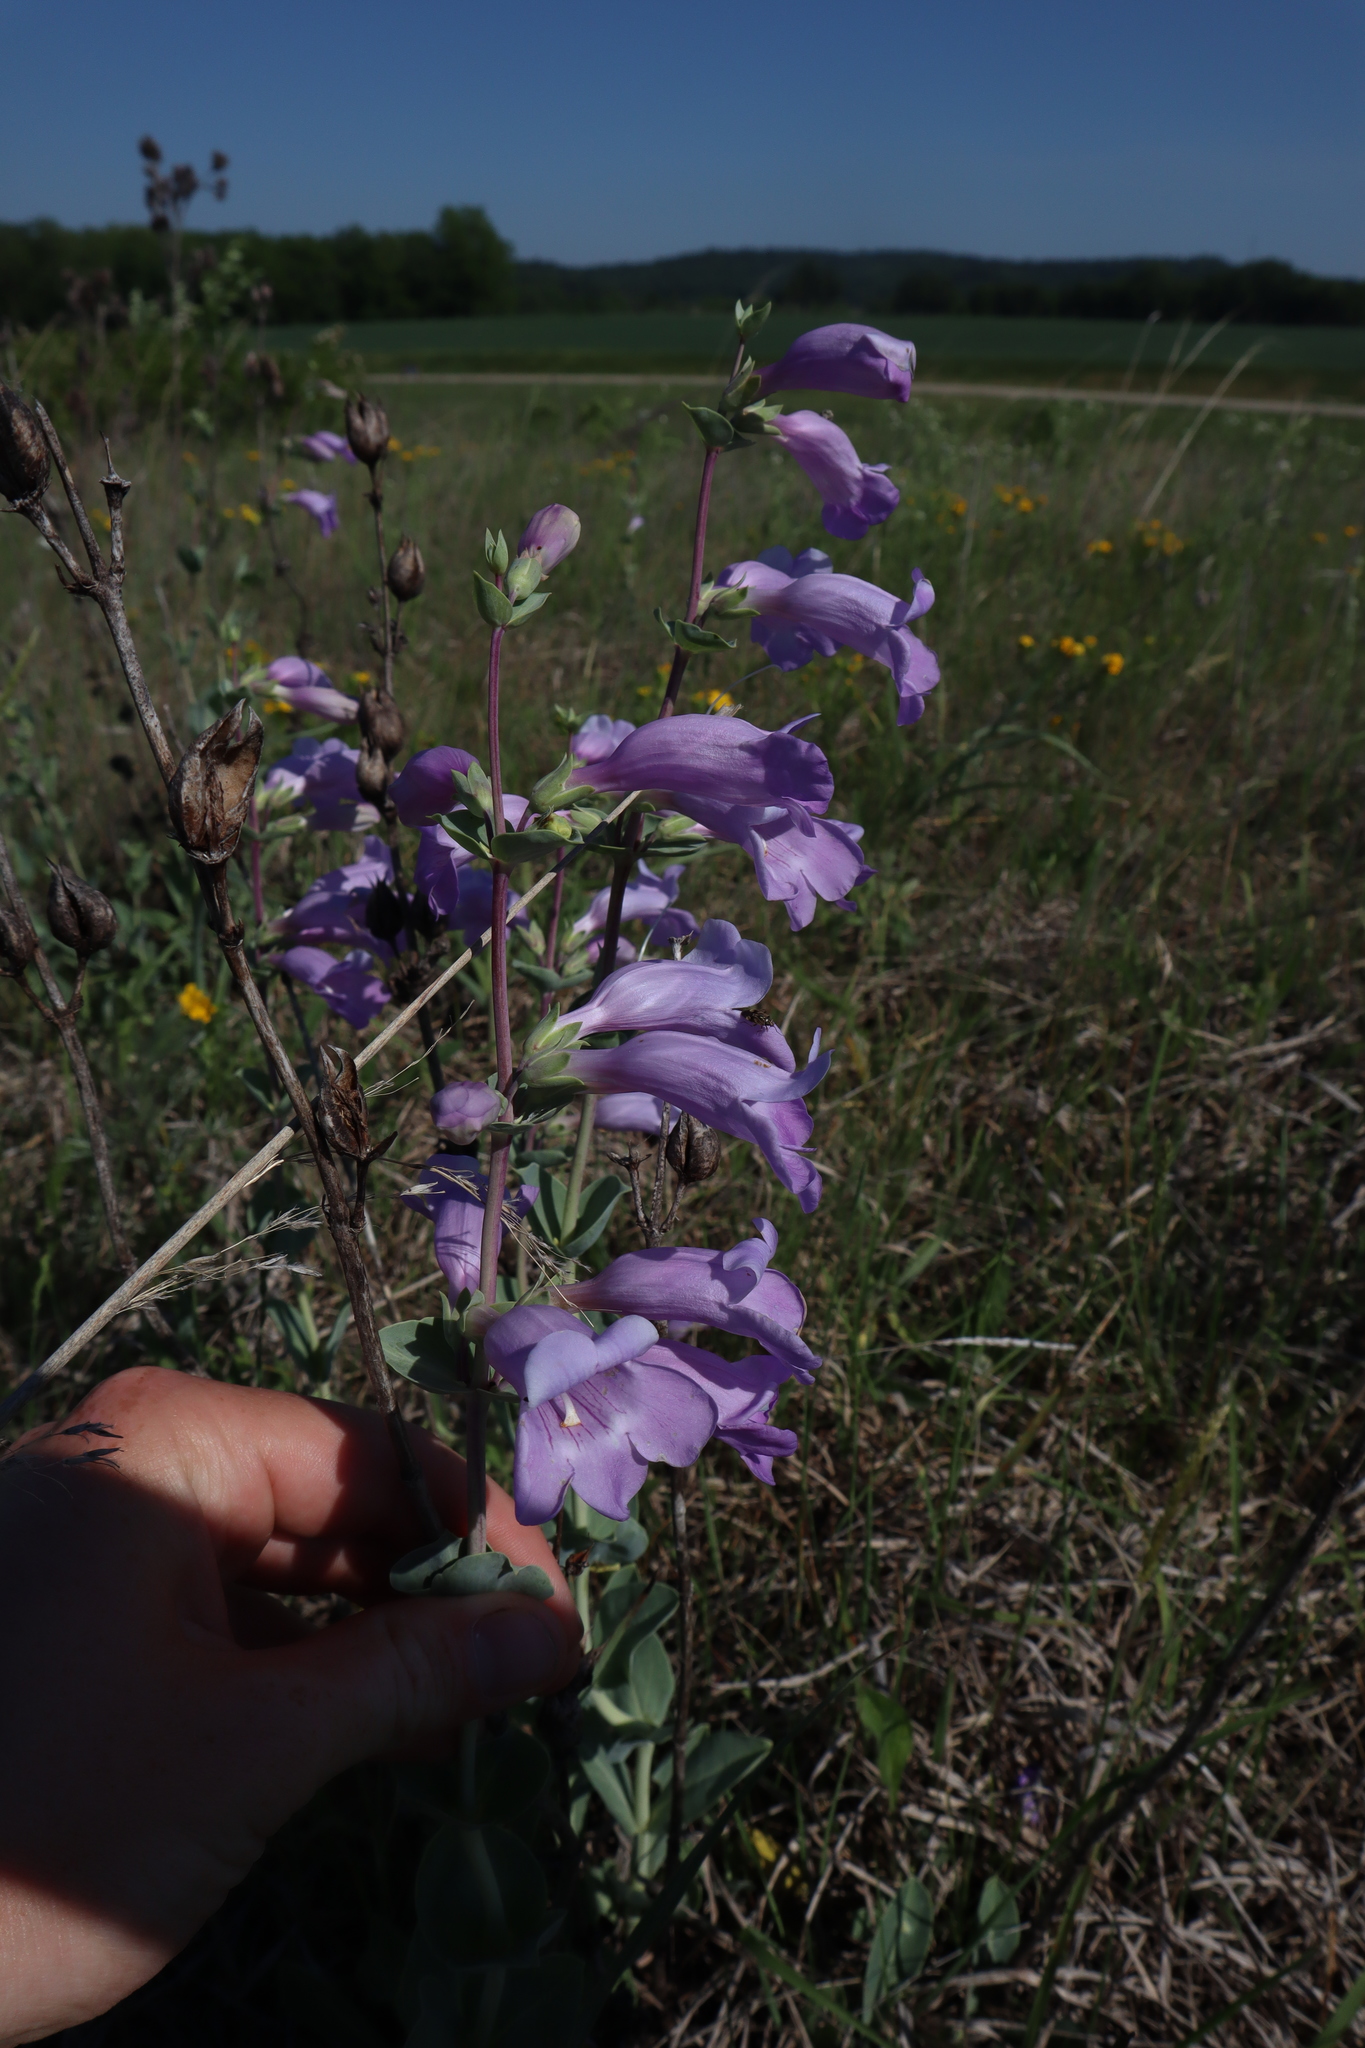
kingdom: Plantae
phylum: Tracheophyta
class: Magnoliopsida
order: Lamiales
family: Plantaginaceae
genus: Penstemon
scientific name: Penstemon
